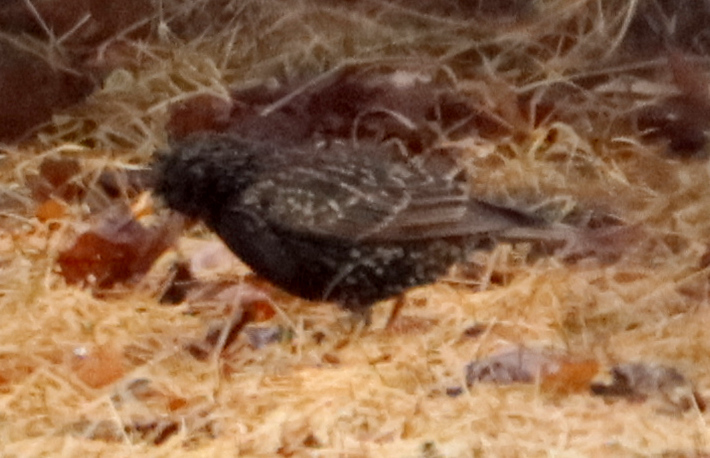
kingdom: Animalia
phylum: Chordata
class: Aves
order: Passeriformes
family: Sturnidae
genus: Sturnus
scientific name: Sturnus vulgaris
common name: Common starling
